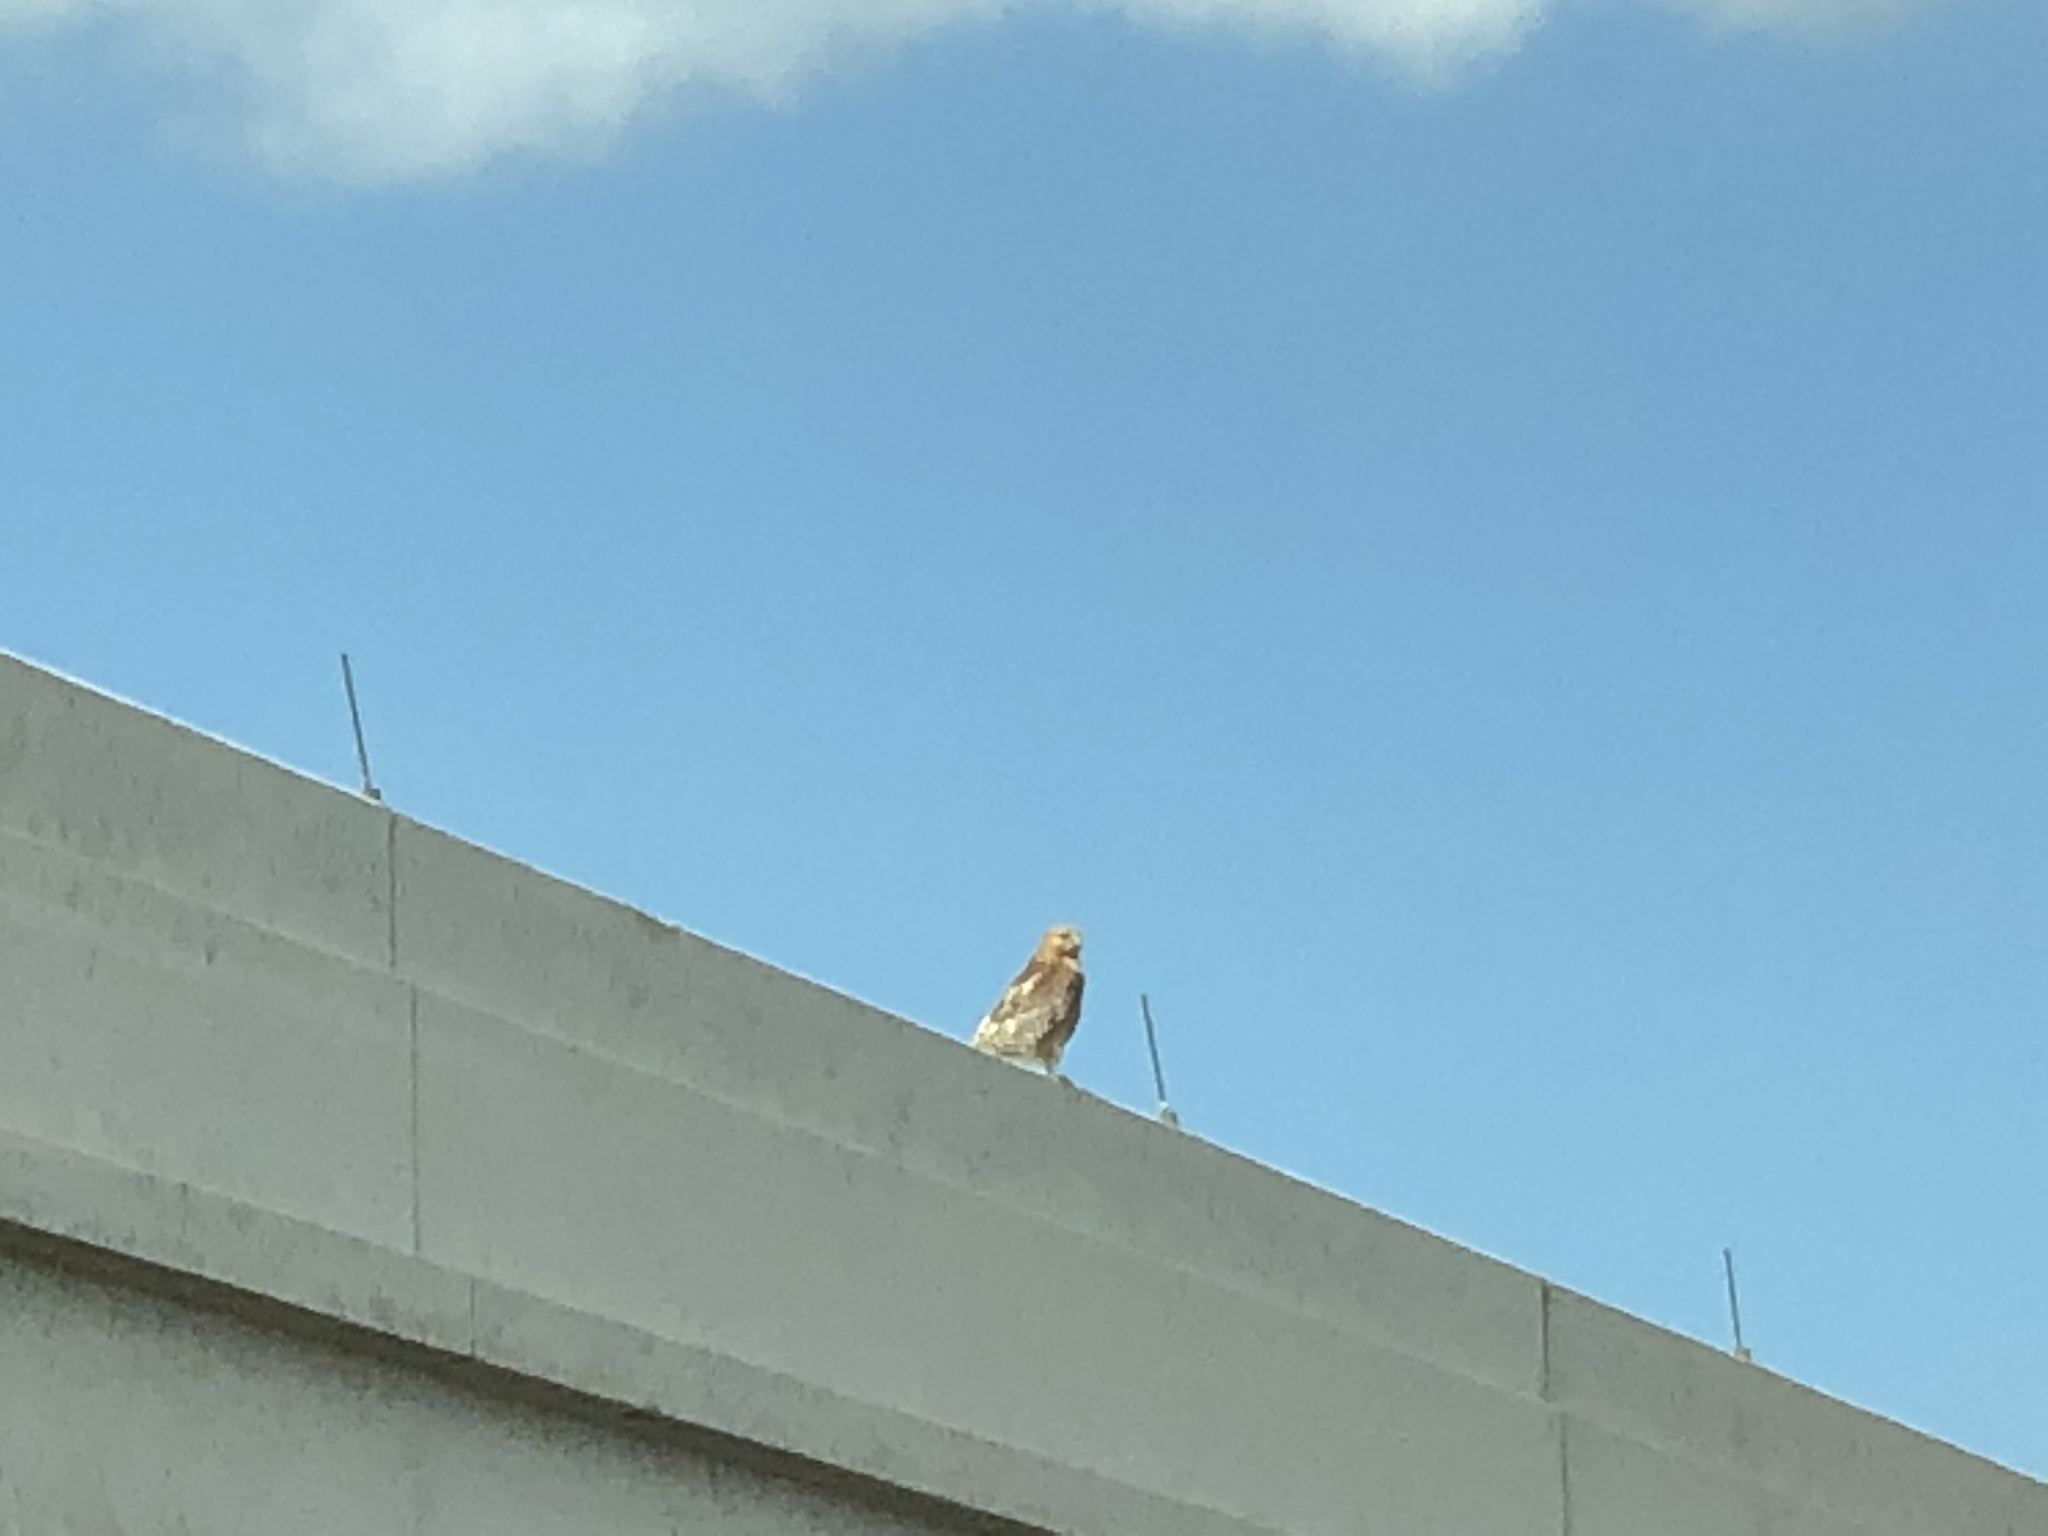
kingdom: Animalia
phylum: Chordata
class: Aves
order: Accipitriformes
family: Accipitridae
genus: Buteo
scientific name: Buteo lineatus
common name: Red-shouldered hawk
